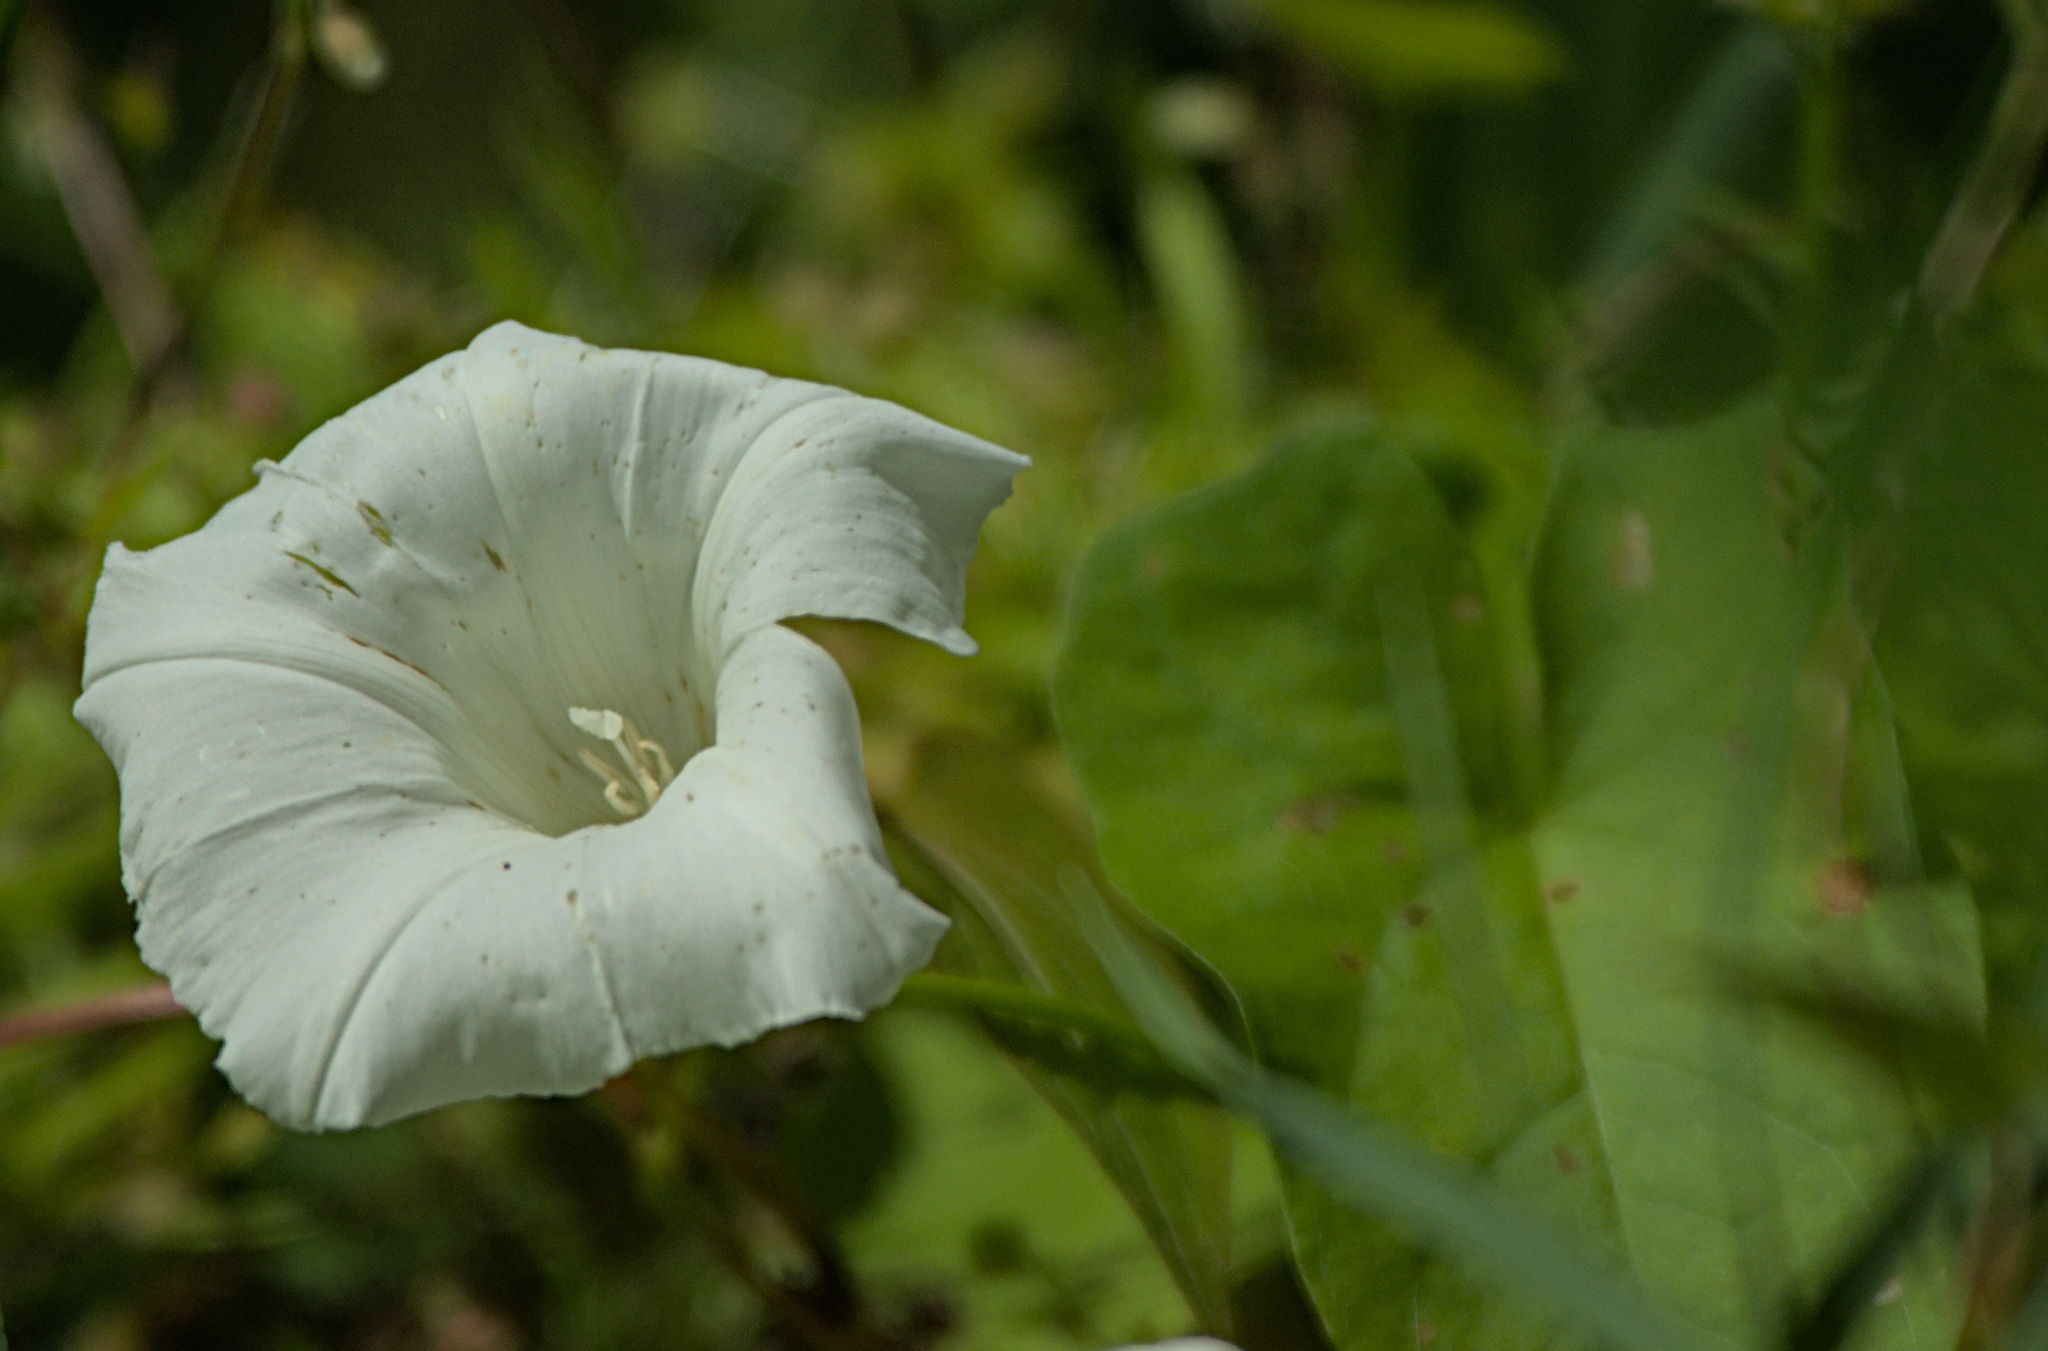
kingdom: Plantae
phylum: Tracheophyta
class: Magnoliopsida
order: Solanales
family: Convolvulaceae
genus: Calystegia
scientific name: Calystegia sepium
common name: Hedge bindweed
